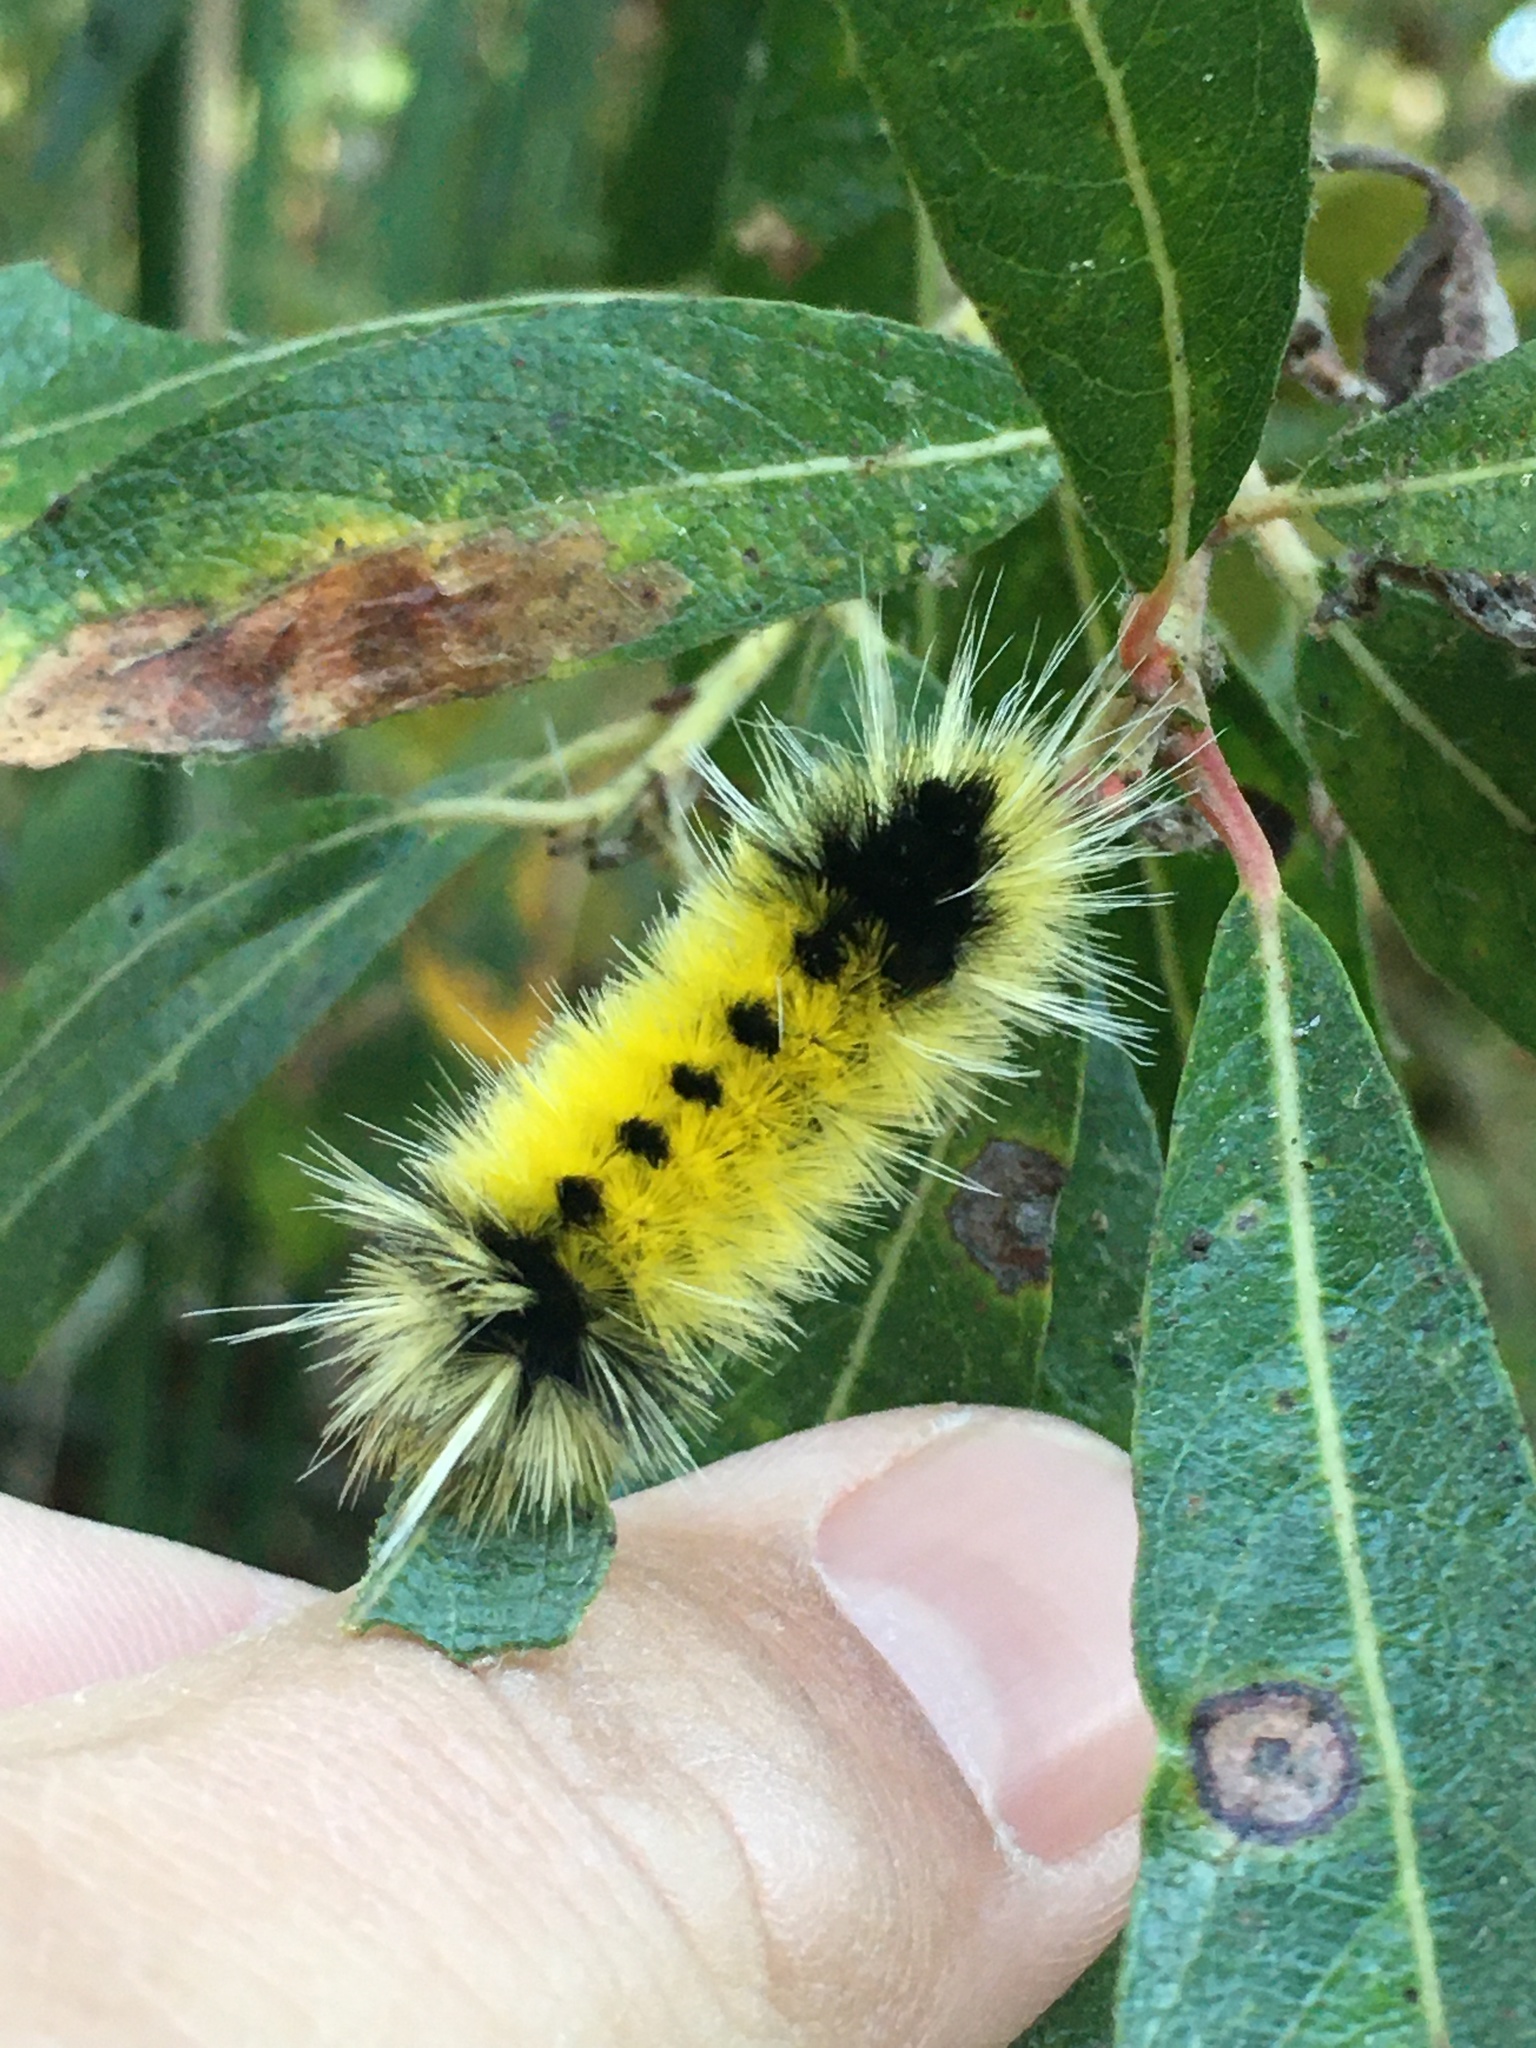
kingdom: Animalia
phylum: Arthropoda
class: Insecta
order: Lepidoptera
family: Erebidae
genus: Lophocampa
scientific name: Lophocampa maculata
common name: Spotted tussock moth
